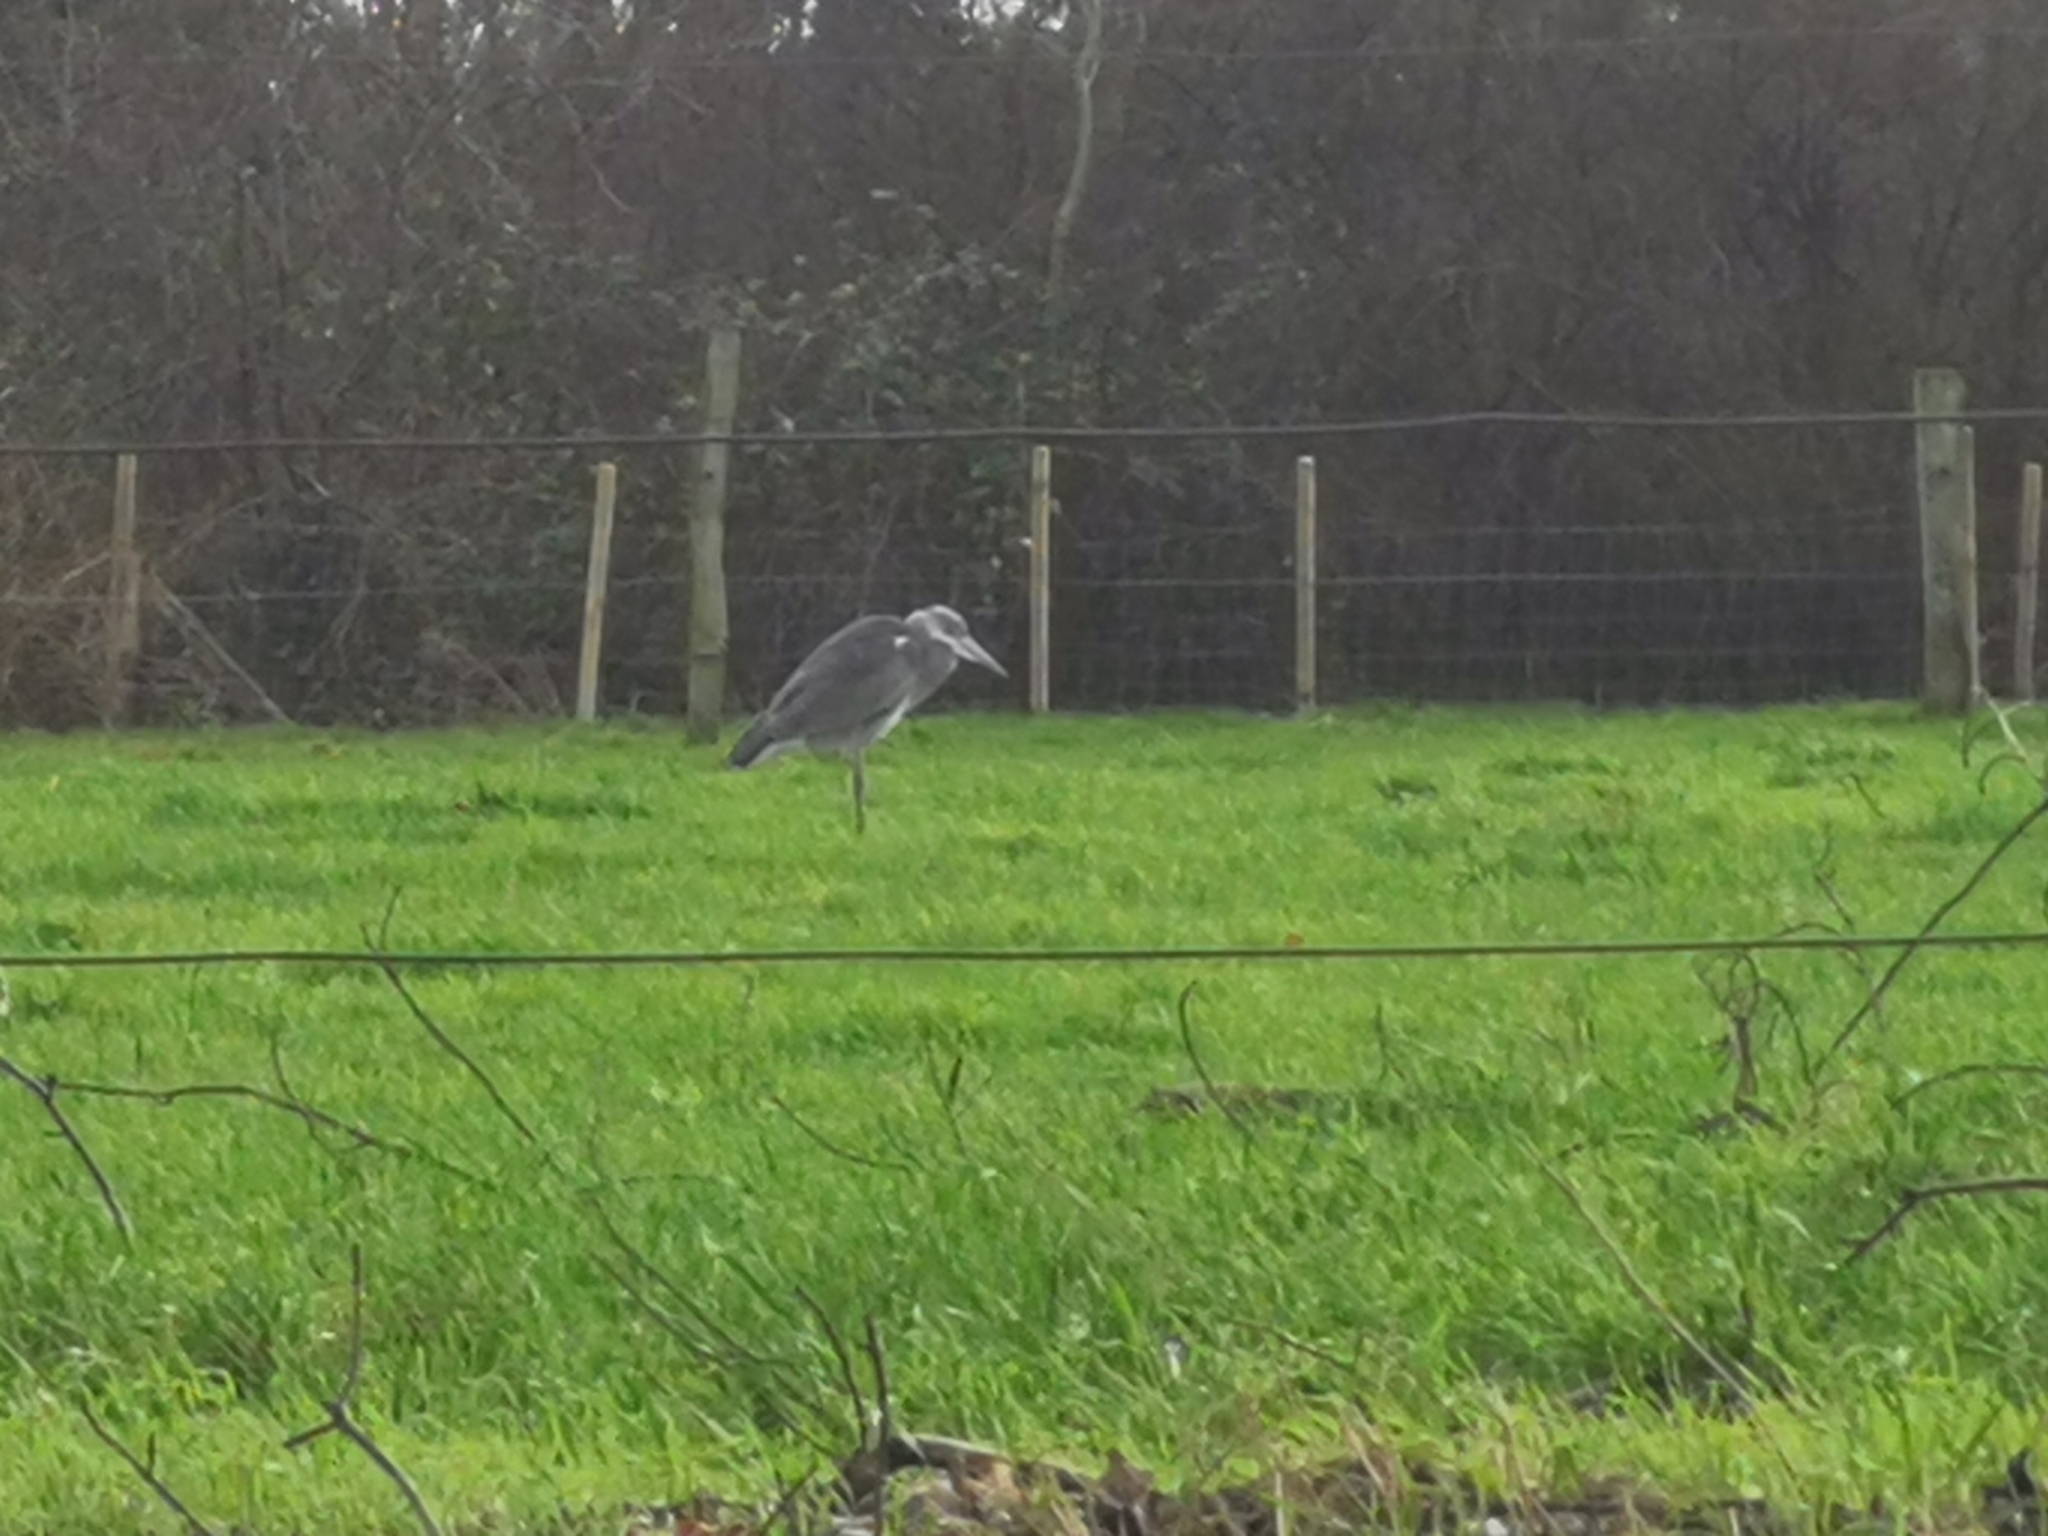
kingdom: Animalia
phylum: Chordata
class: Aves
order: Pelecaniformes
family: Ardeidae
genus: Ardea
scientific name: Ardea cinerea
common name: Grey heron
